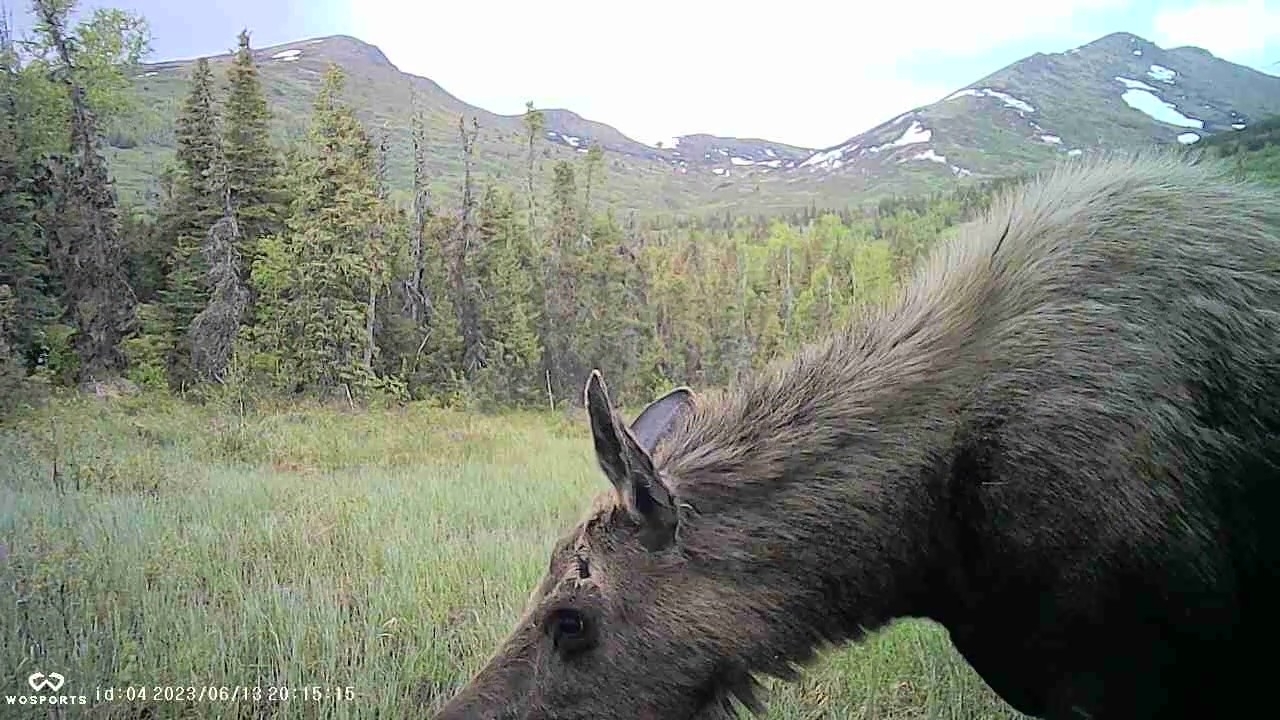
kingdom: Animalia
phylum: Chordata
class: Mammalia
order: Artiodactyla
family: Cervidae
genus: Alces
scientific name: Alces alces
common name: Moose
